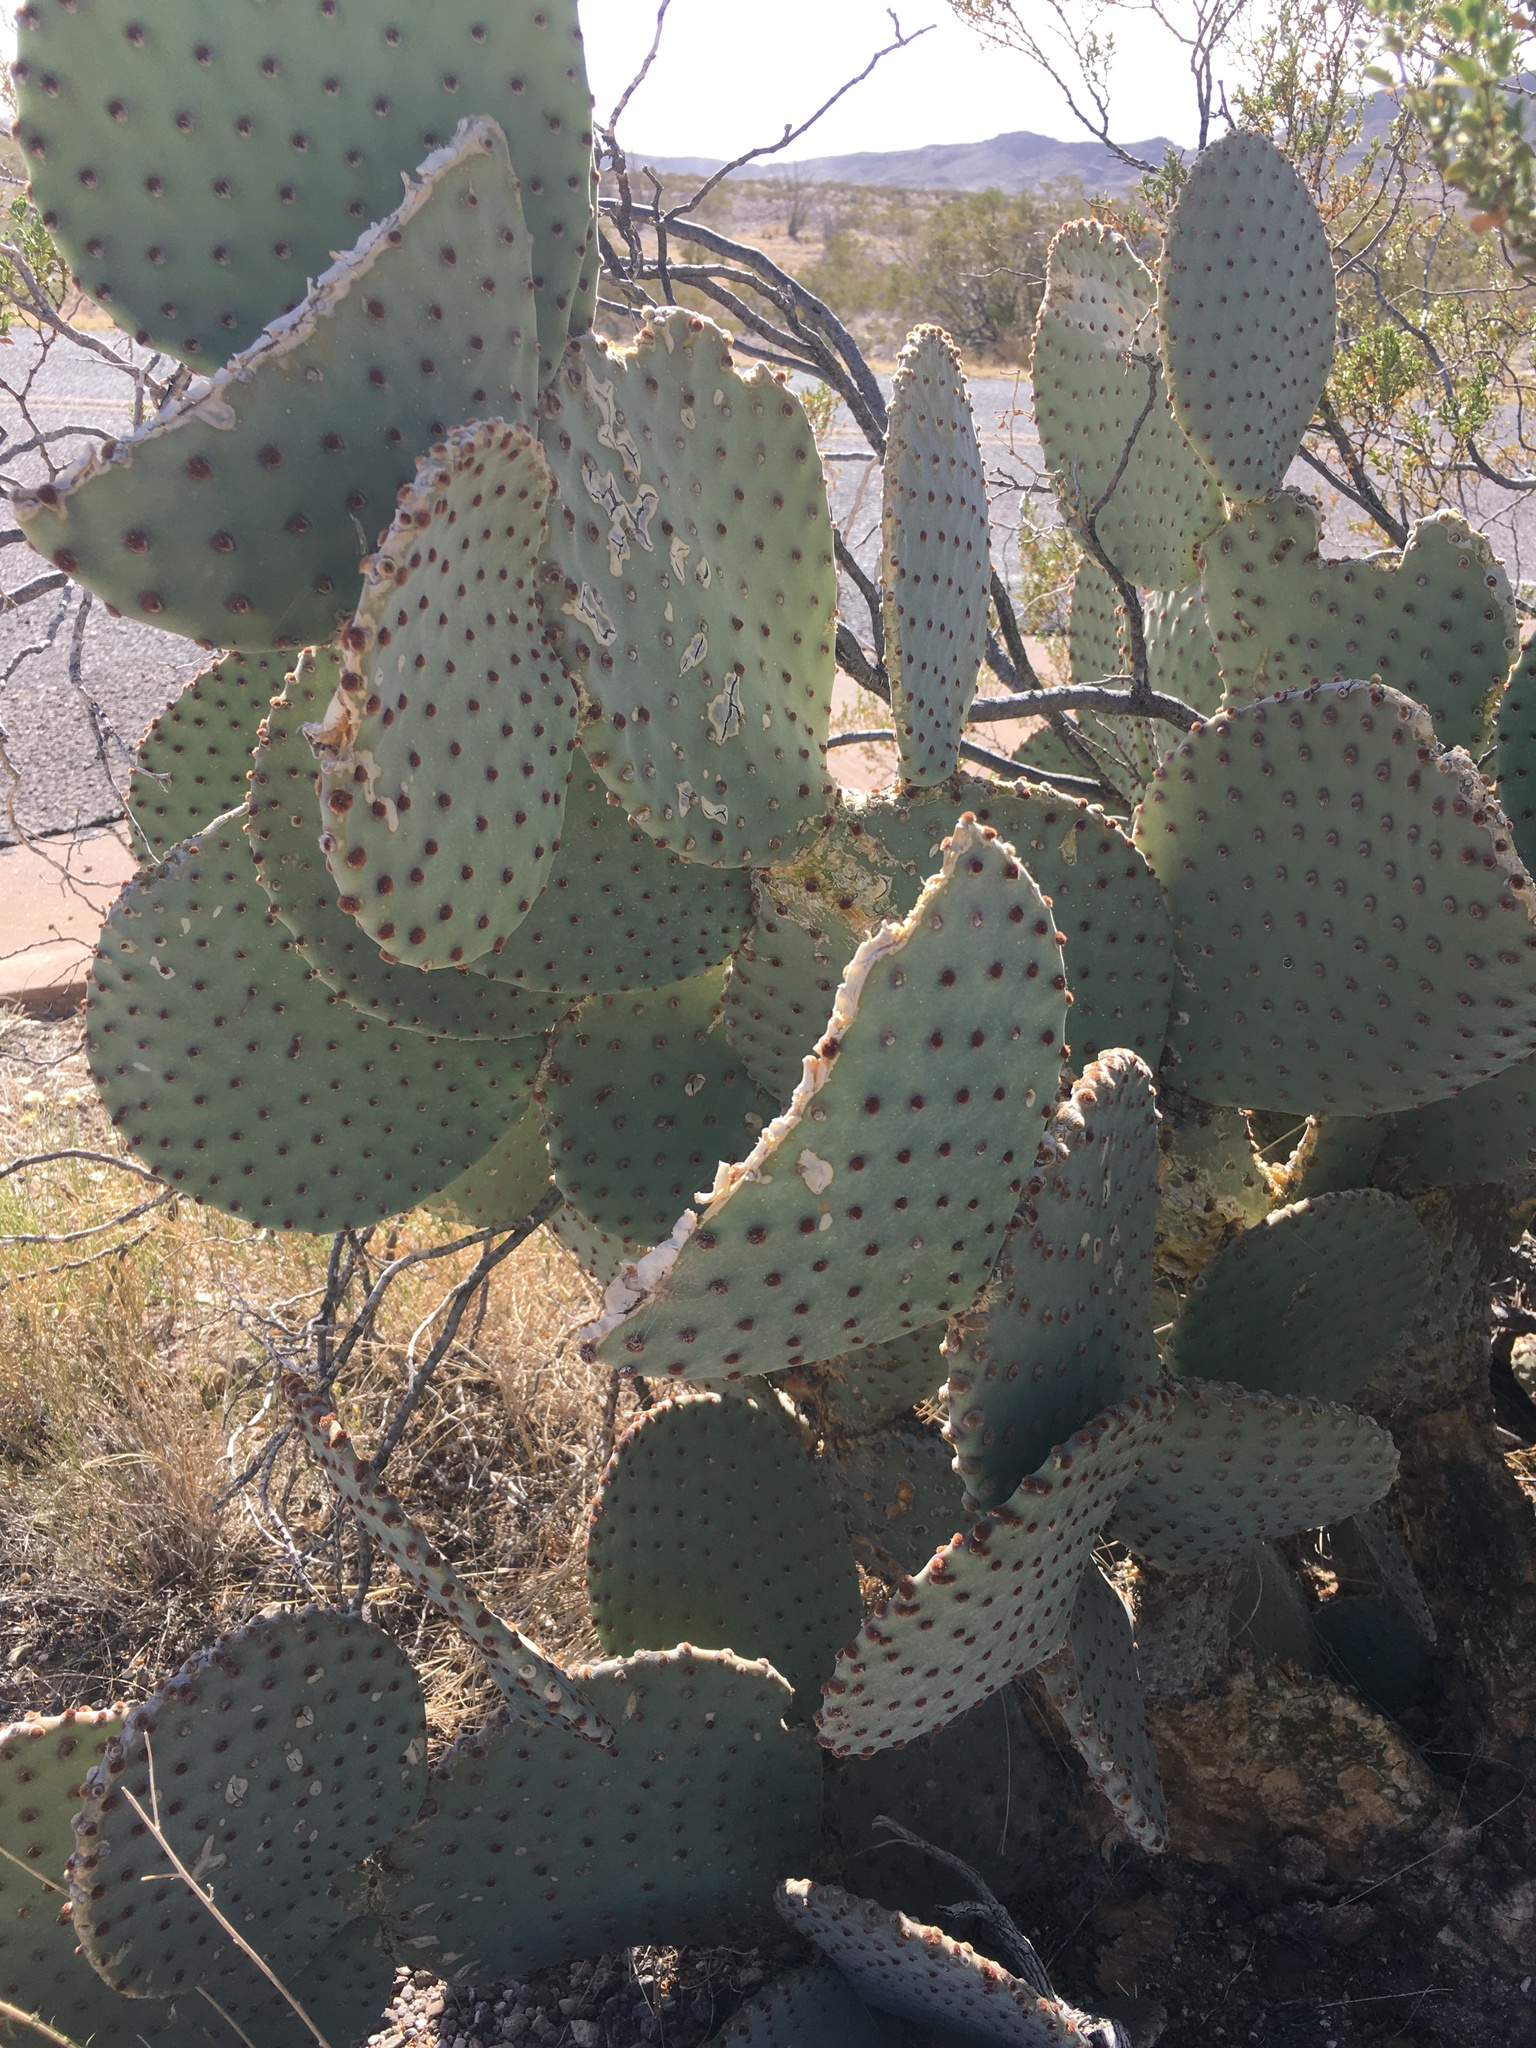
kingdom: Plantae
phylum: Tracheophyta
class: Magnoliopsida
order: Caryophyllales
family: Cactaceae
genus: Opuntia
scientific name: Opuntia rufida
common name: Blind pricklypear
